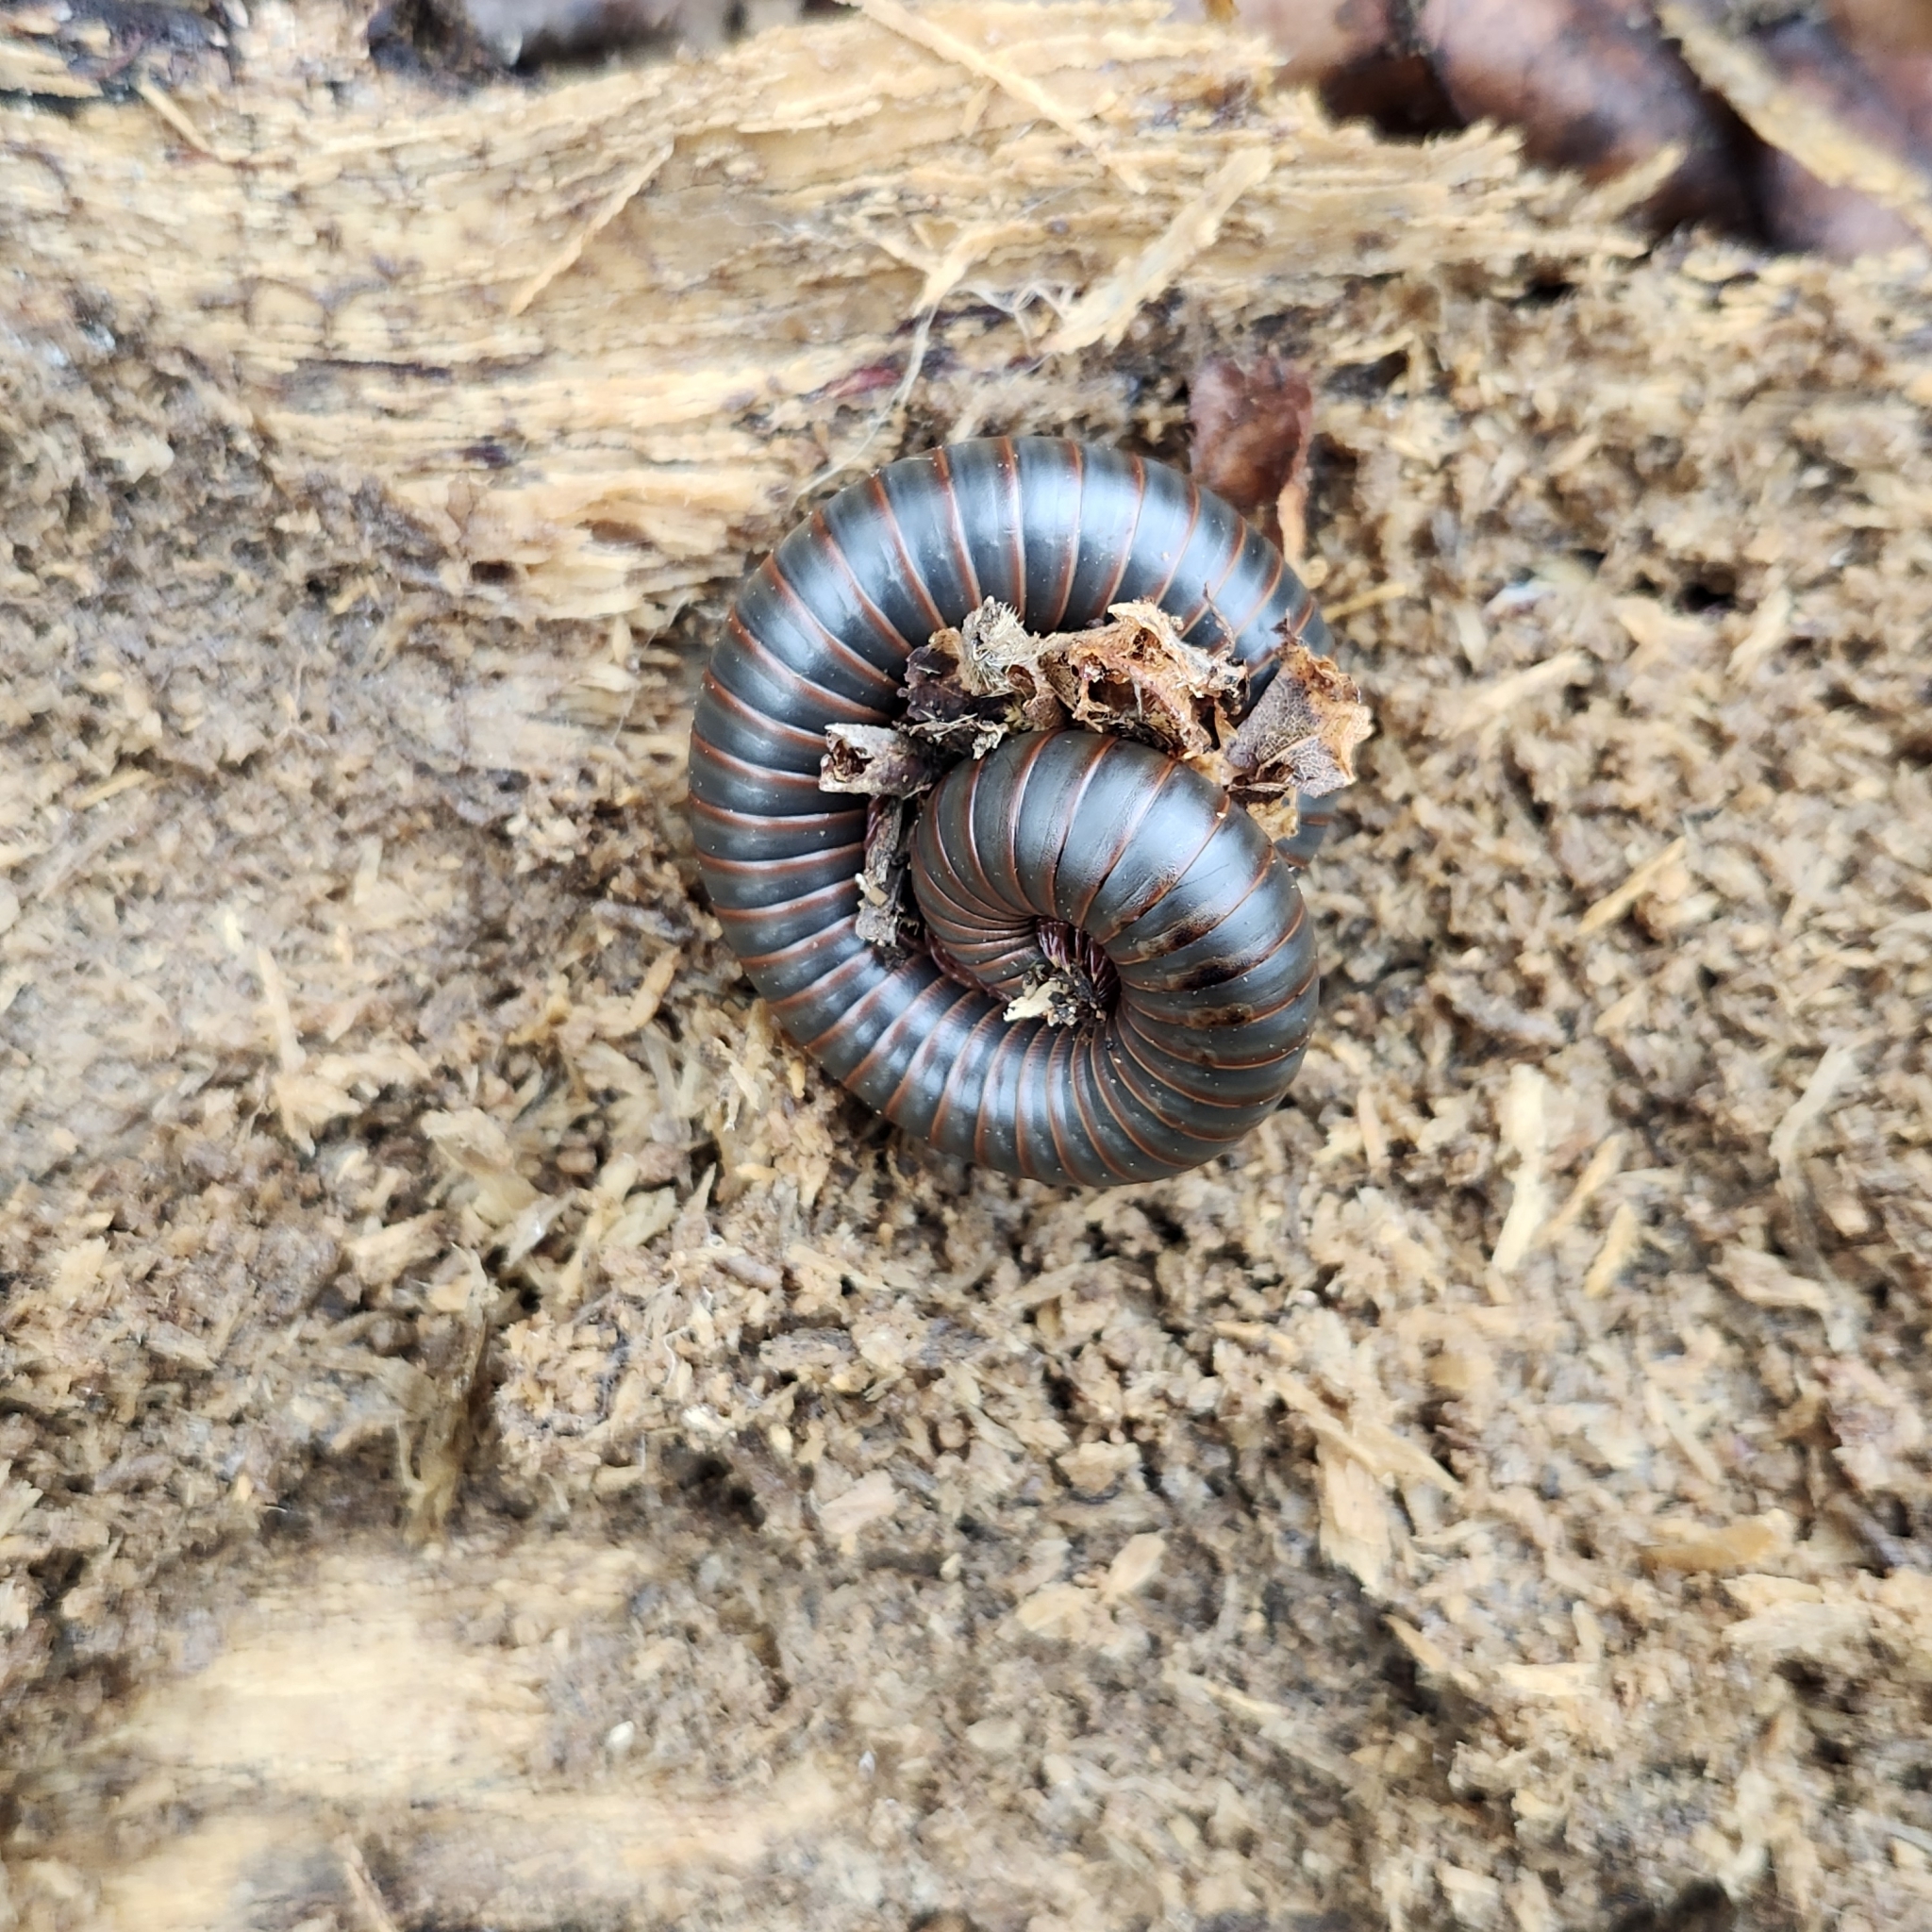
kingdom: Animalia
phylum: Arthropoda
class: Diplopoda
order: Spirobolida
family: Spirobolidae
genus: Narceus
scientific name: Narceus
